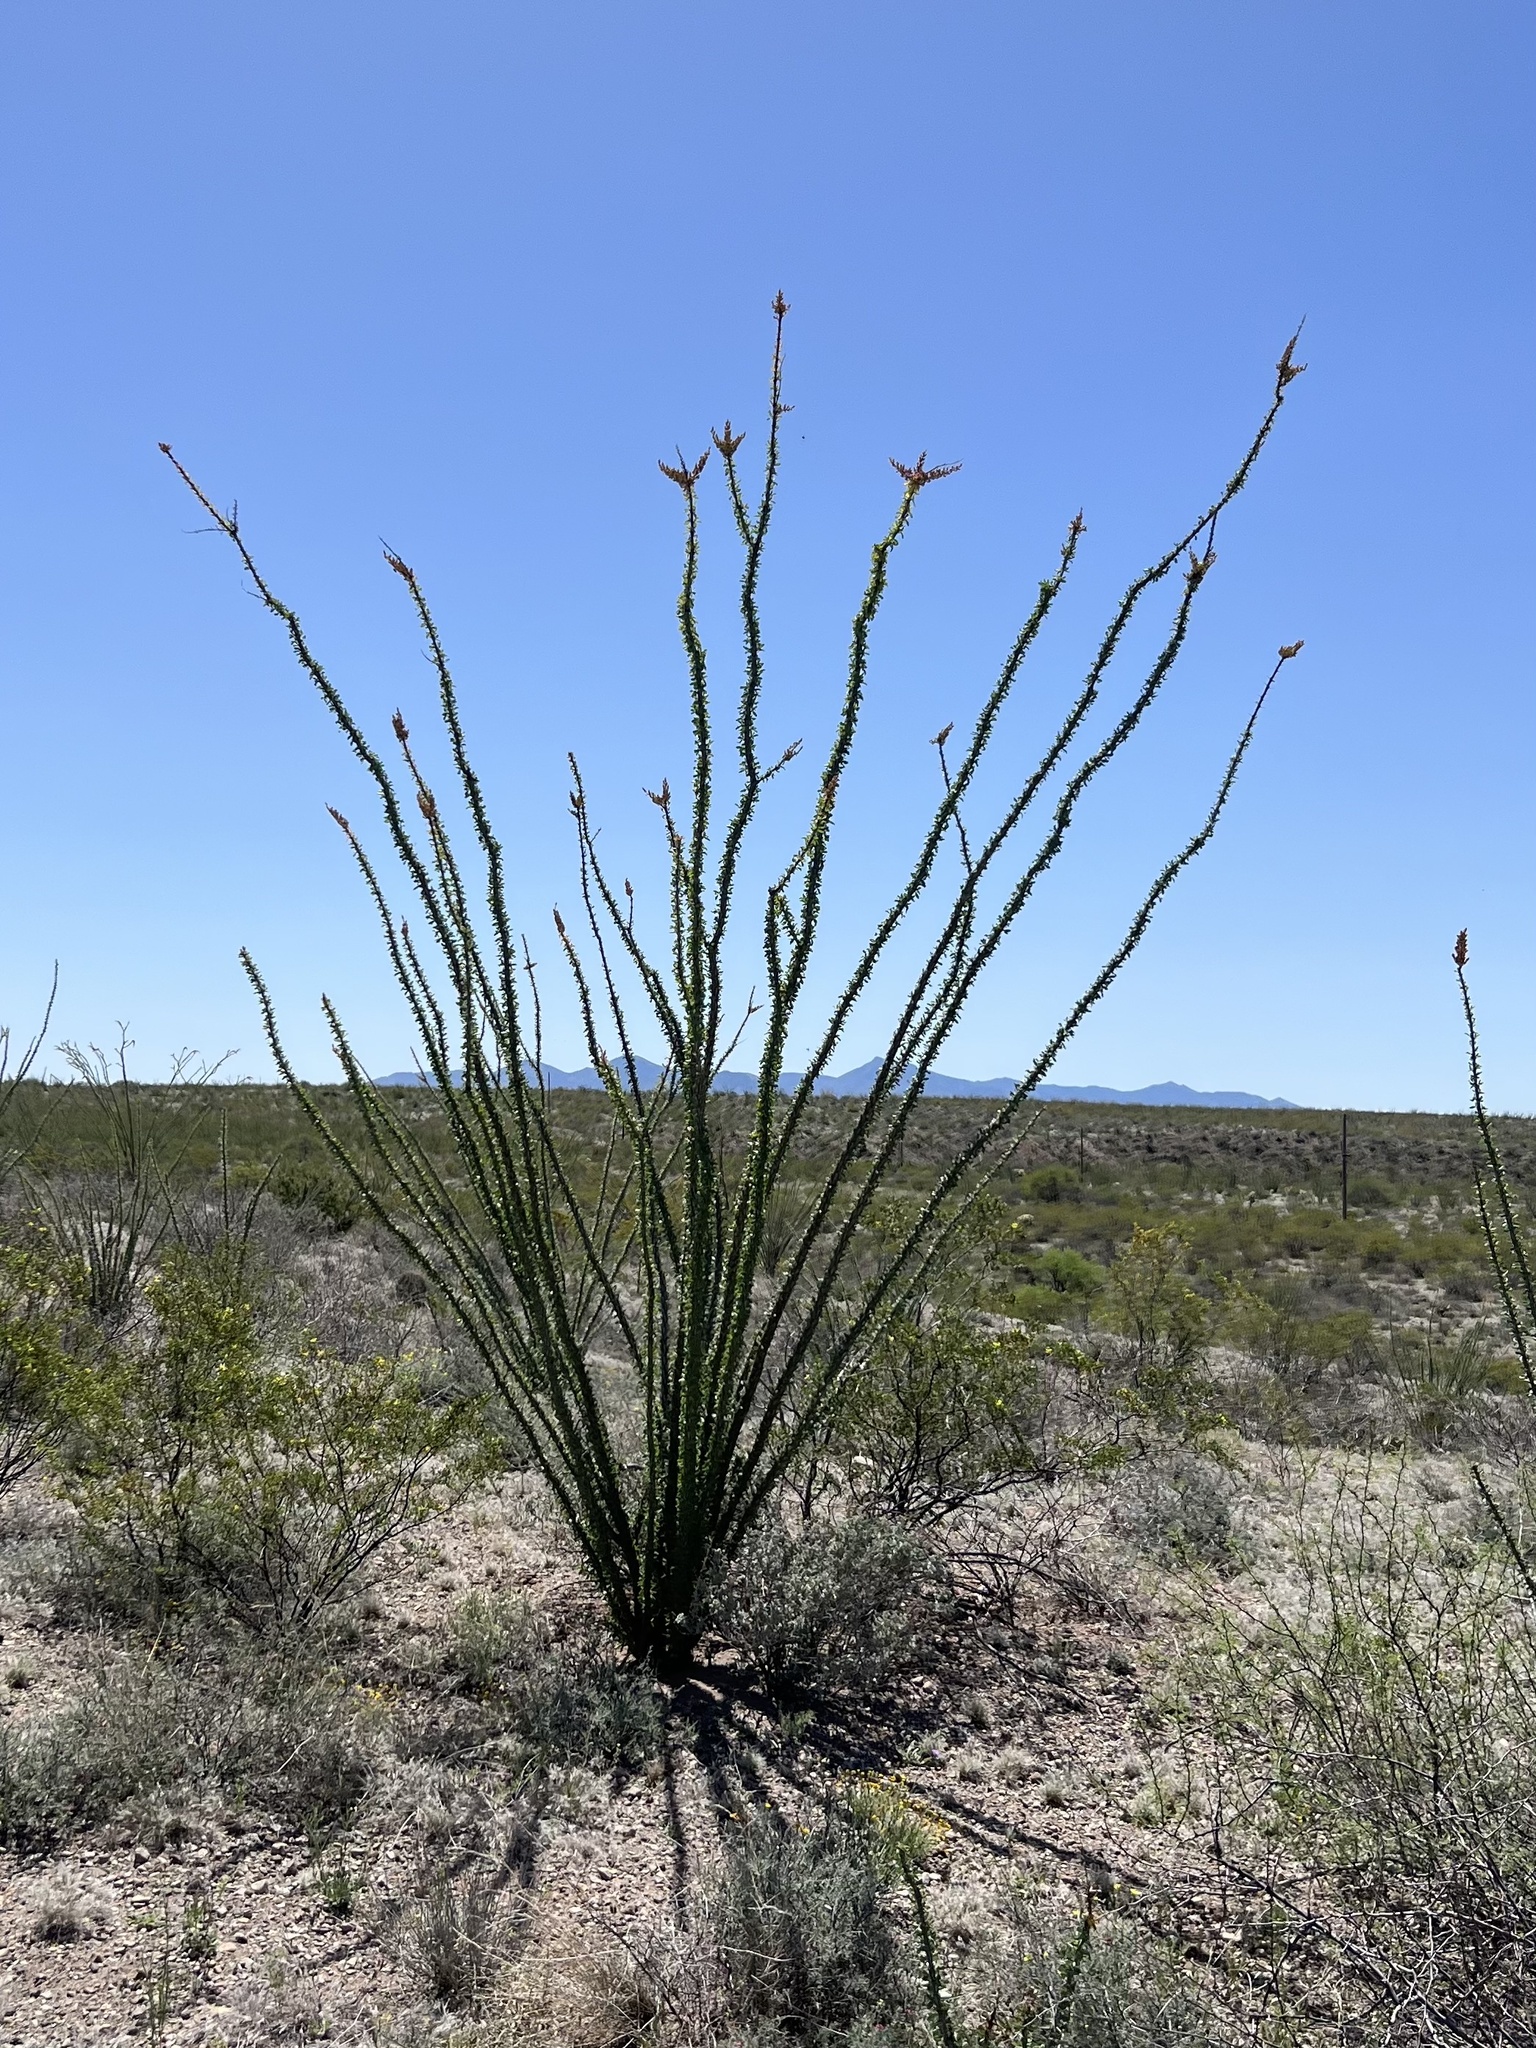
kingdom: Plantae
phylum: Tracheophyta
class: Magnoliopsida
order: Ericales
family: Fouquieriaceae
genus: Fouquieria
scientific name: Fouquieria splendens
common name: Vine-cactus
